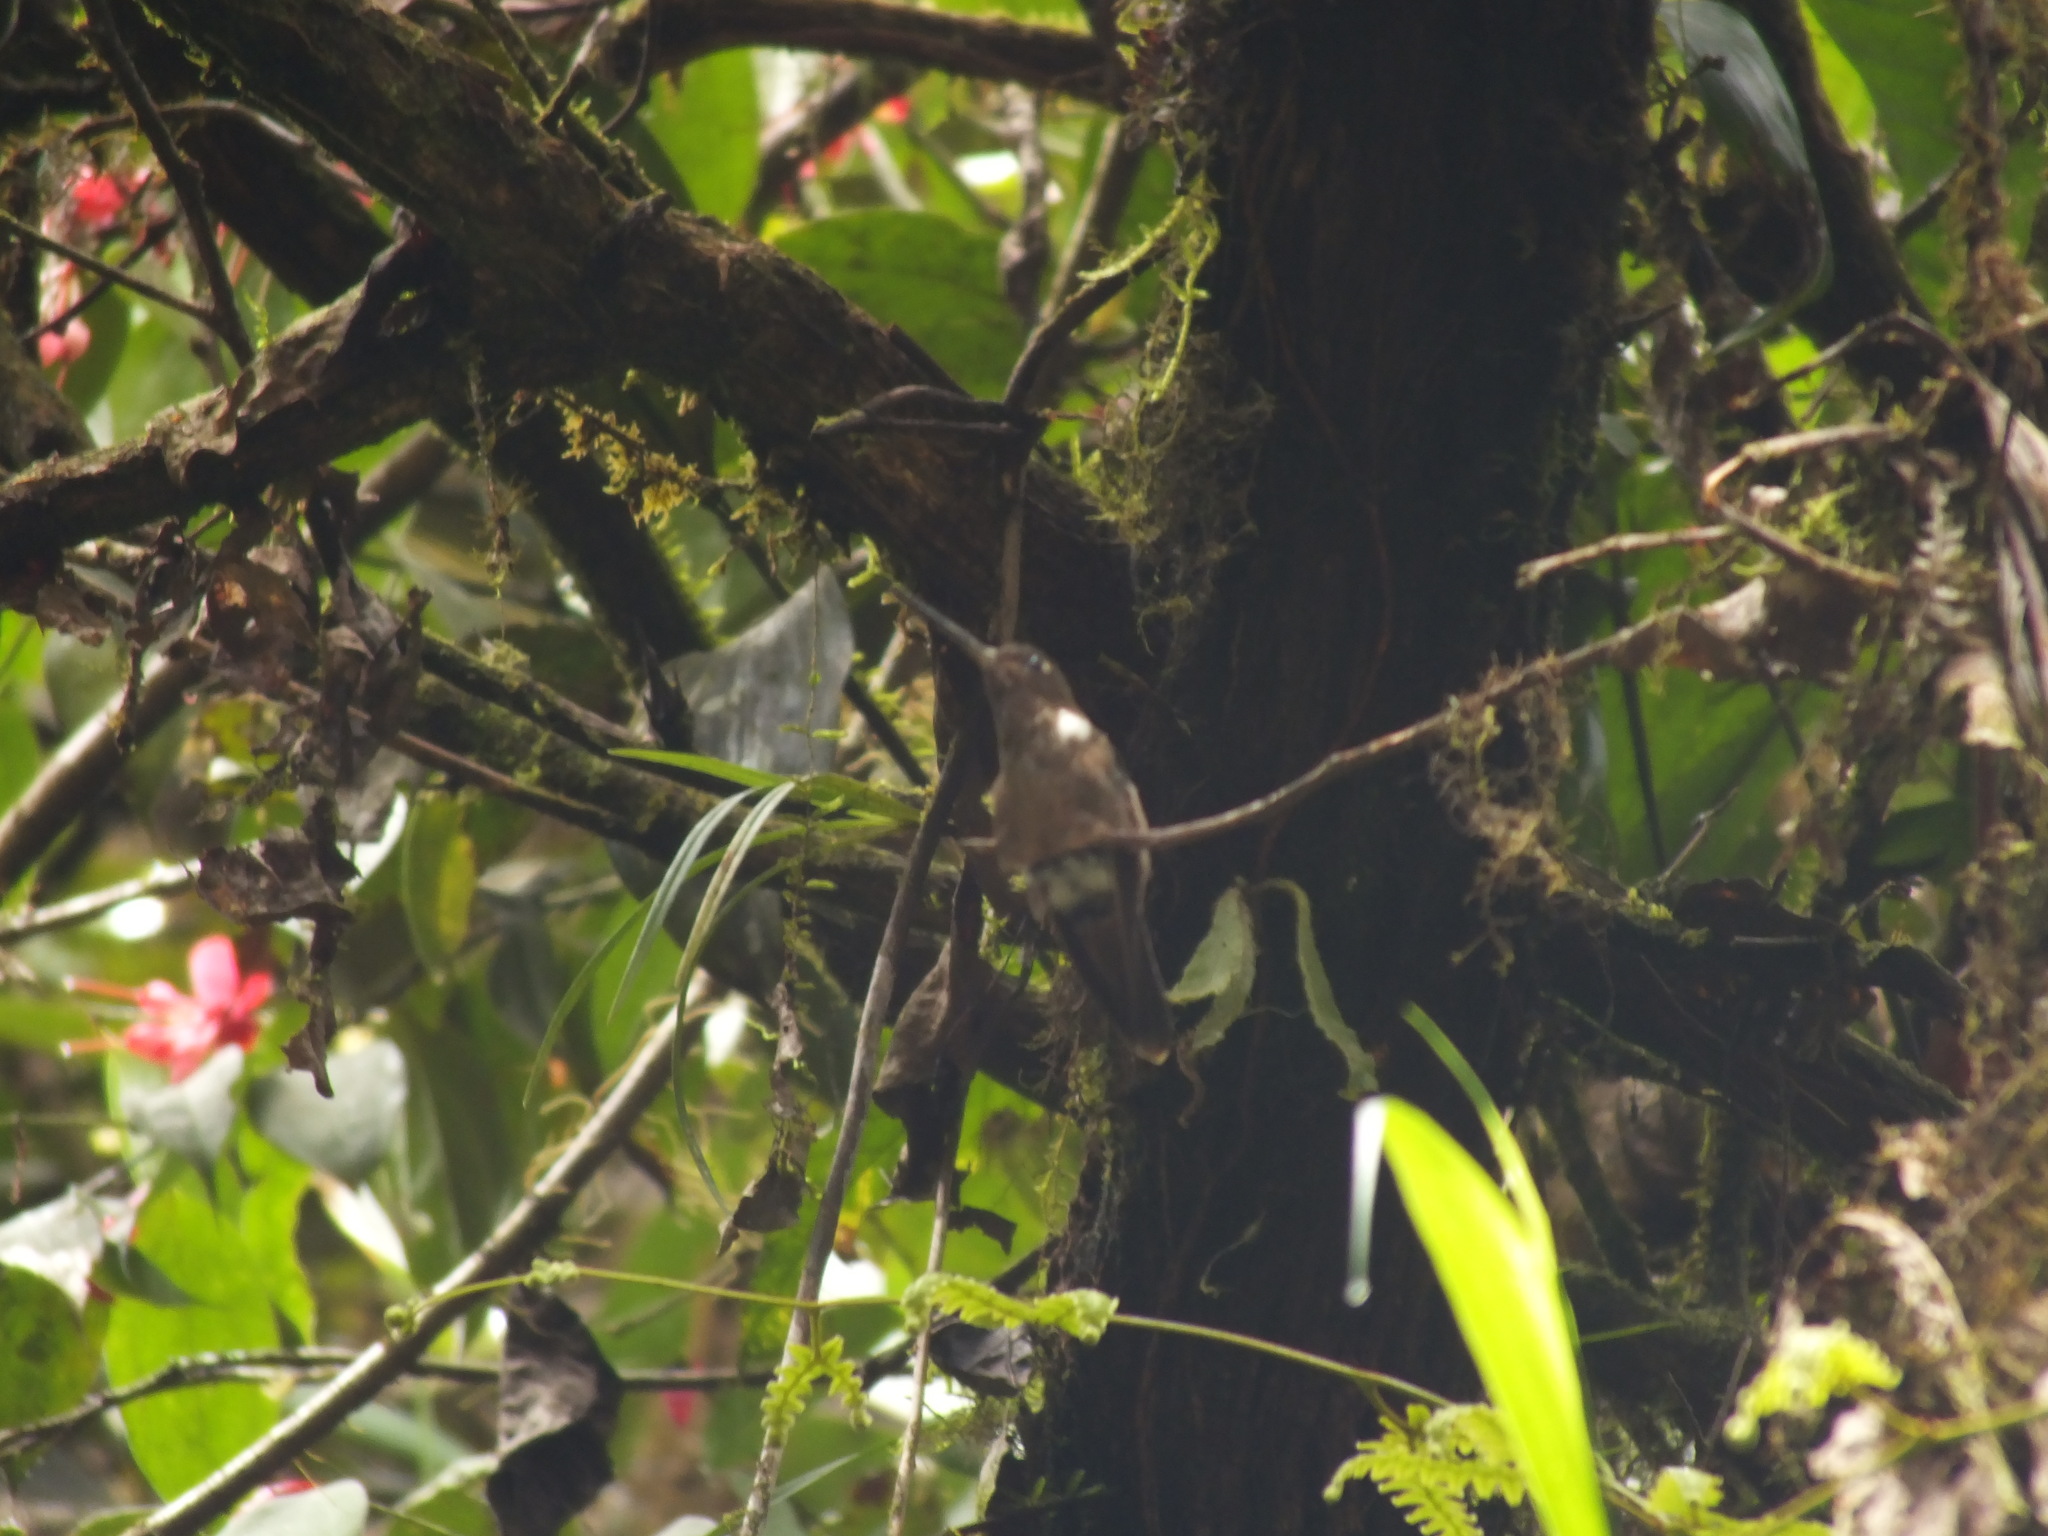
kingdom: Animalia
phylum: Chordata
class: Aves
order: Apodiformes
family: Trochilidae
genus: Coeligena
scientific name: Coeligena wilsoni
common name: Brown inca
